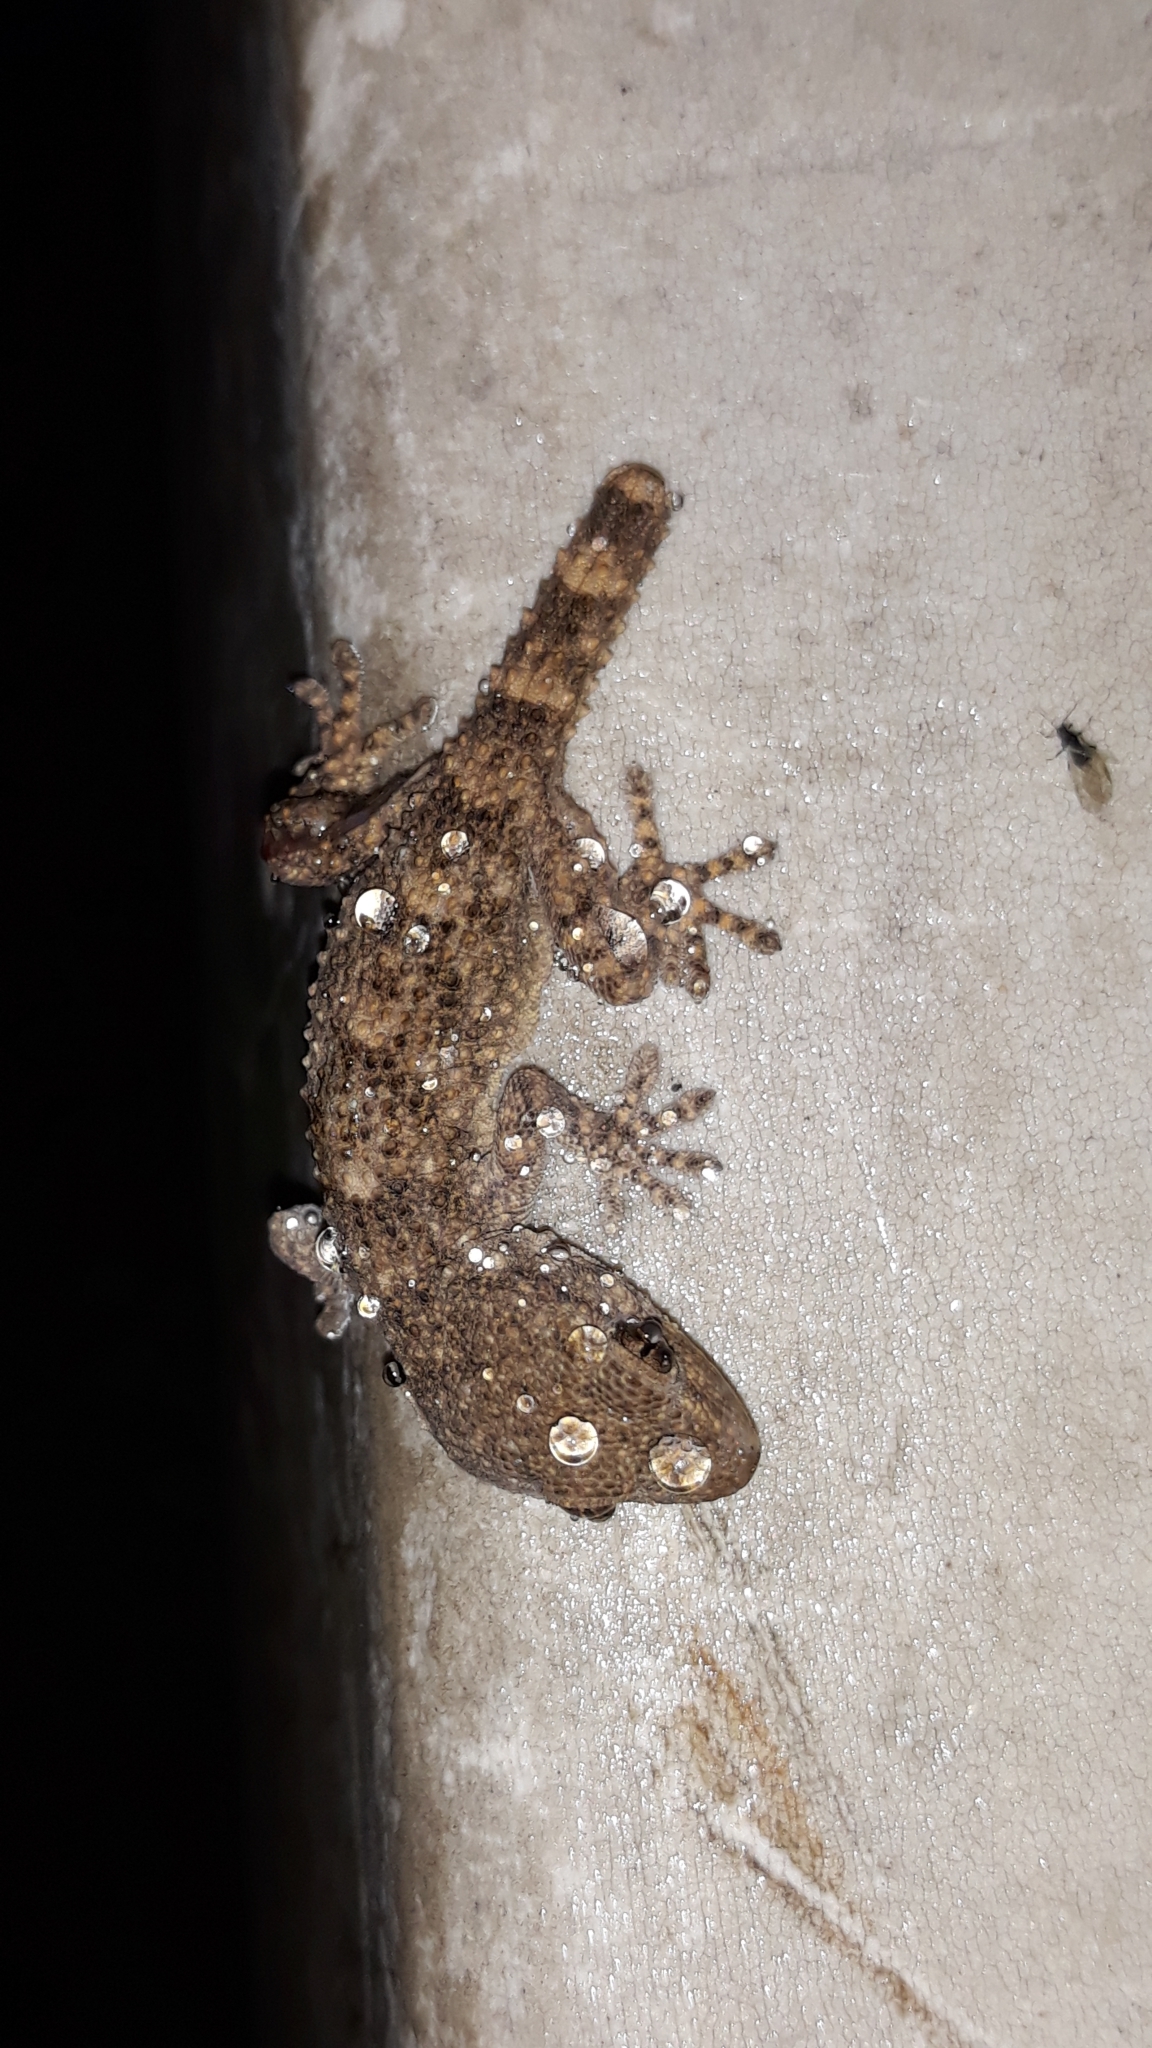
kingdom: Animalia
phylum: Chordata
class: Squamata
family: Phyllodactylidae
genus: Tarentola
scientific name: Tarentola mauritanica
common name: Moorish gecko
